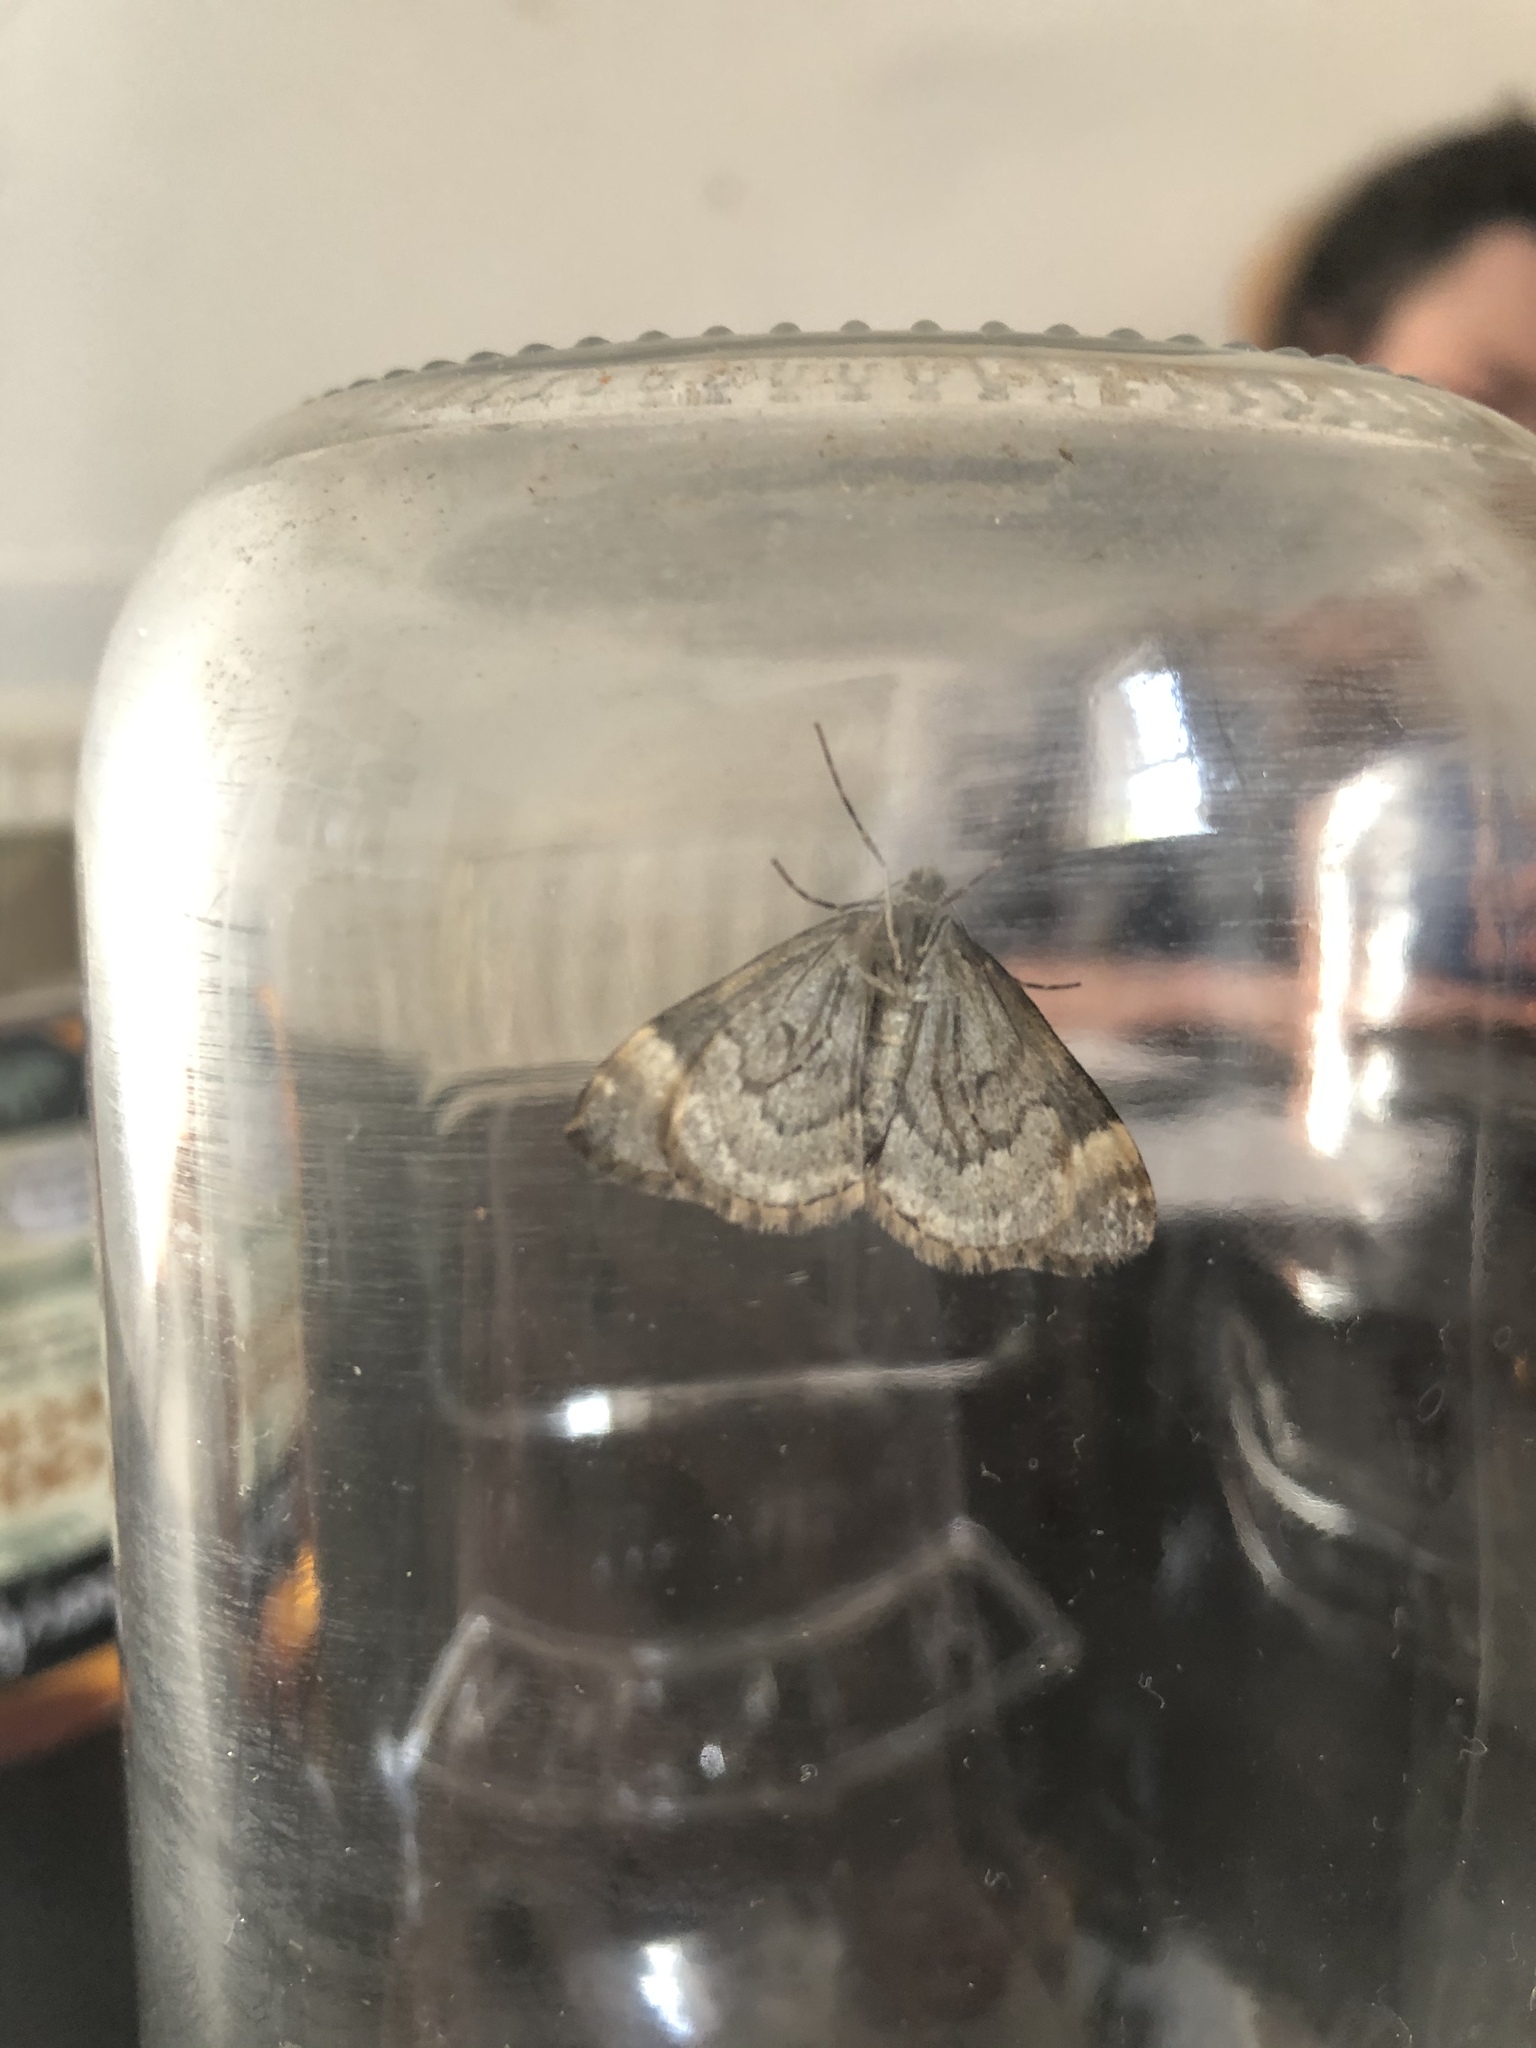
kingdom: Animalia
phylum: Arthropoda
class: Insecta
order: Lepidoptera
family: Geometridae
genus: Dysstroma
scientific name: Dysstroma truncata
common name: Common marbled carpet
